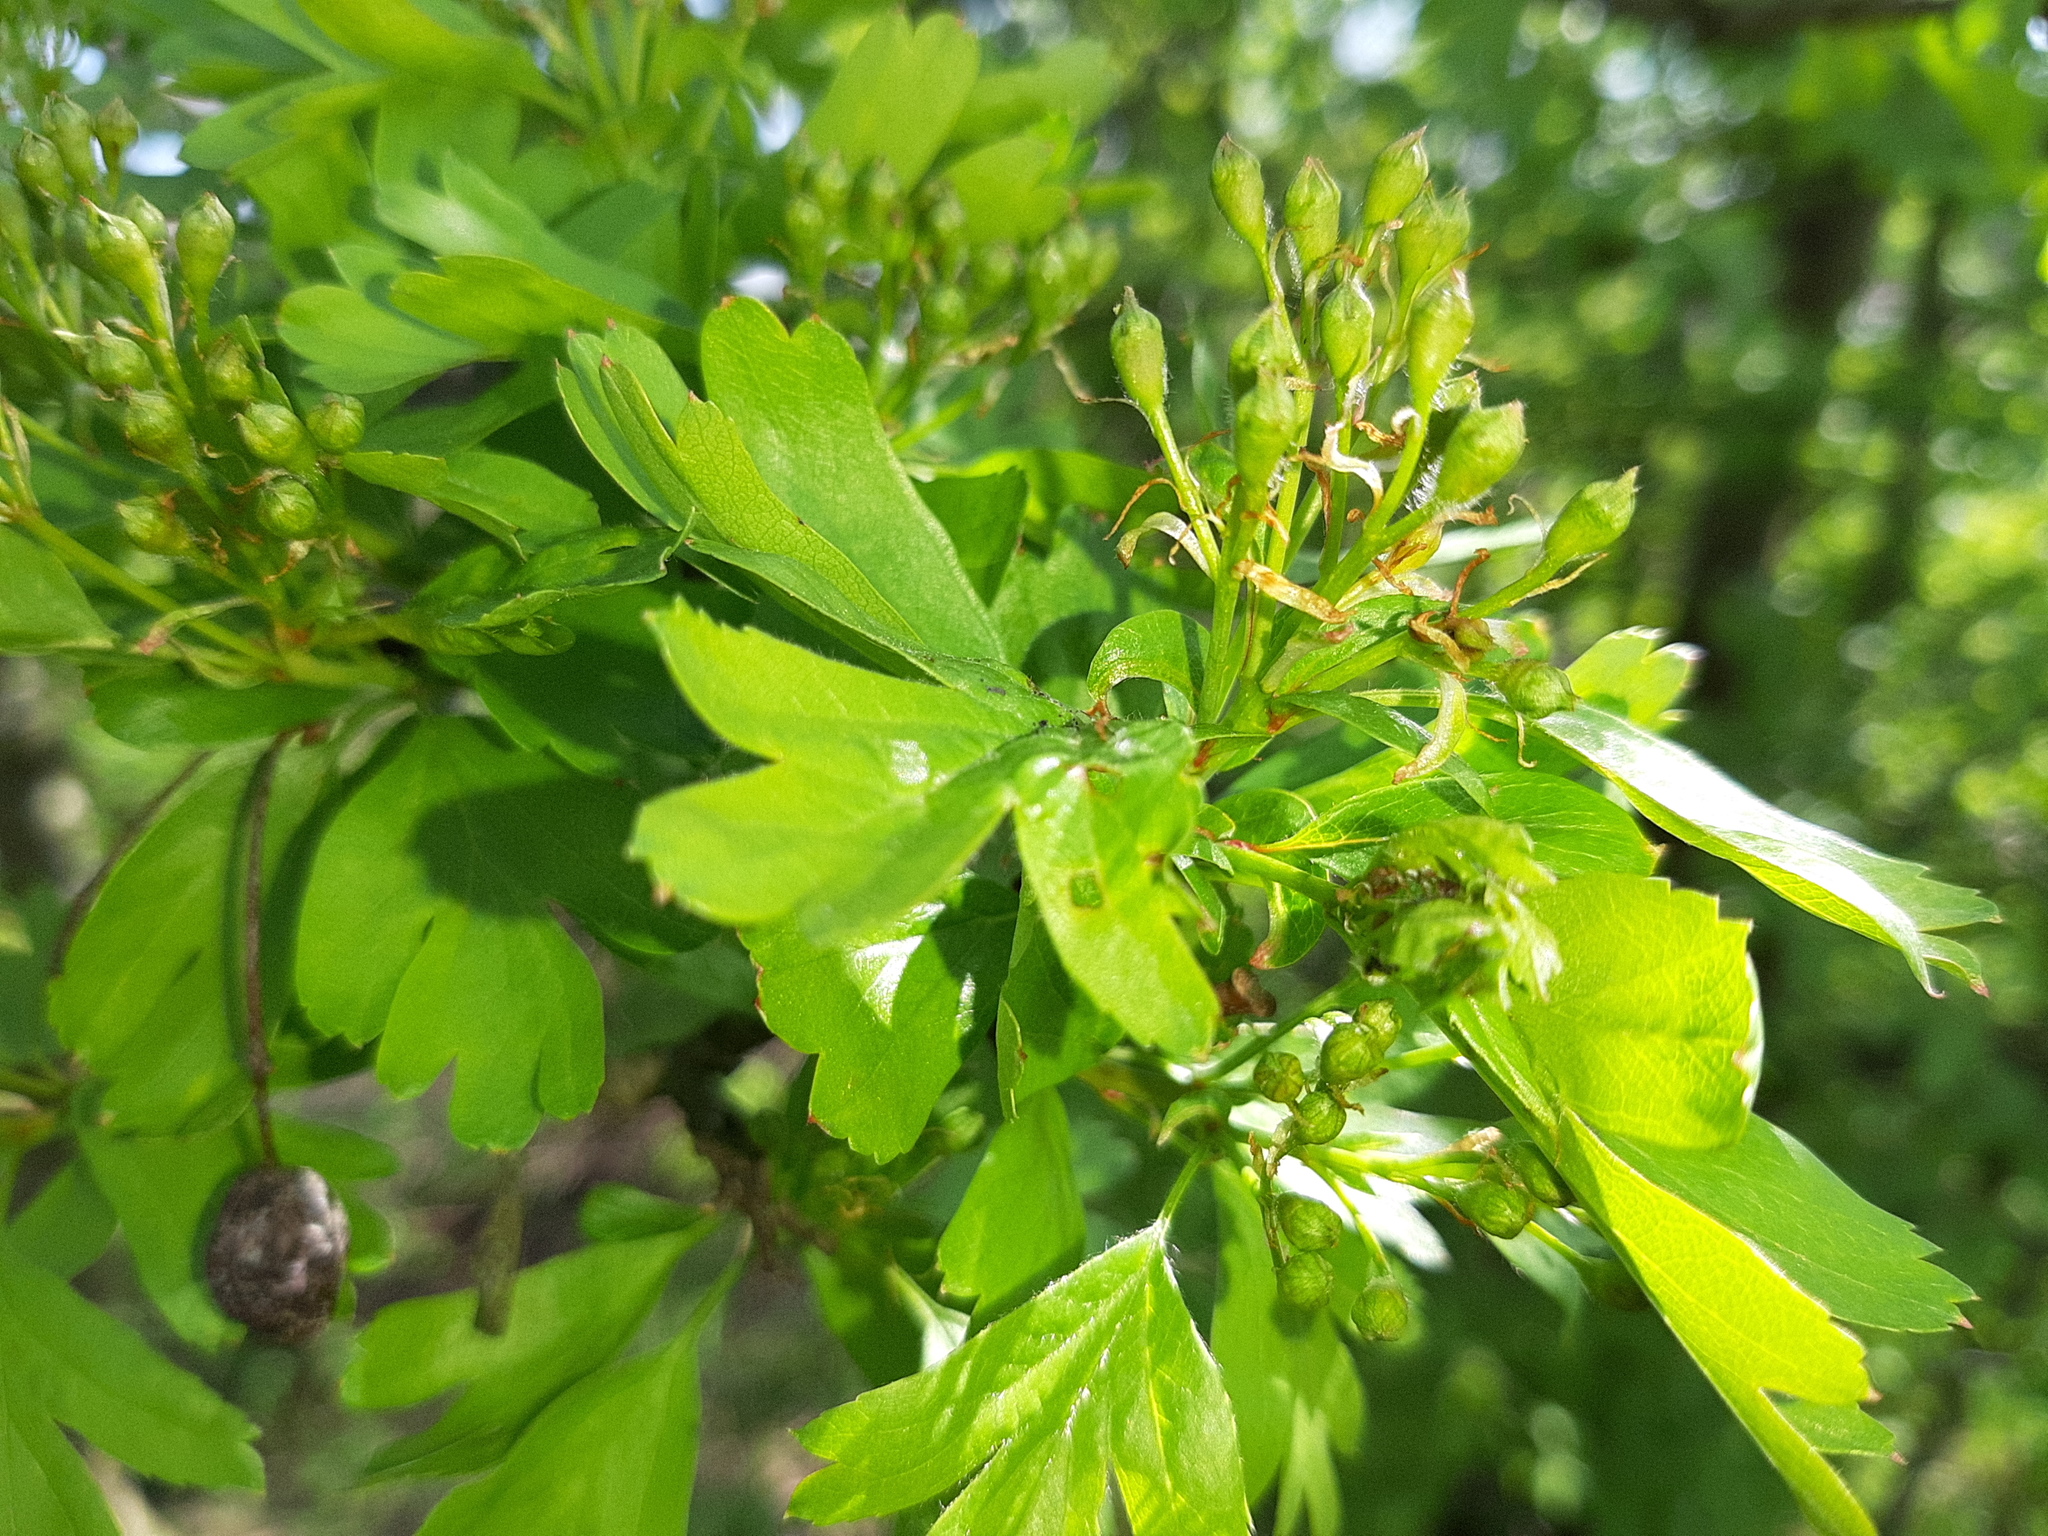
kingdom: Plantae
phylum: Tracheophyta
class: Magnoliopsida
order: Rosales
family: Rosaceae
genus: Crataegus
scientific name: Crataegus monogyna
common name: Hawthorn
